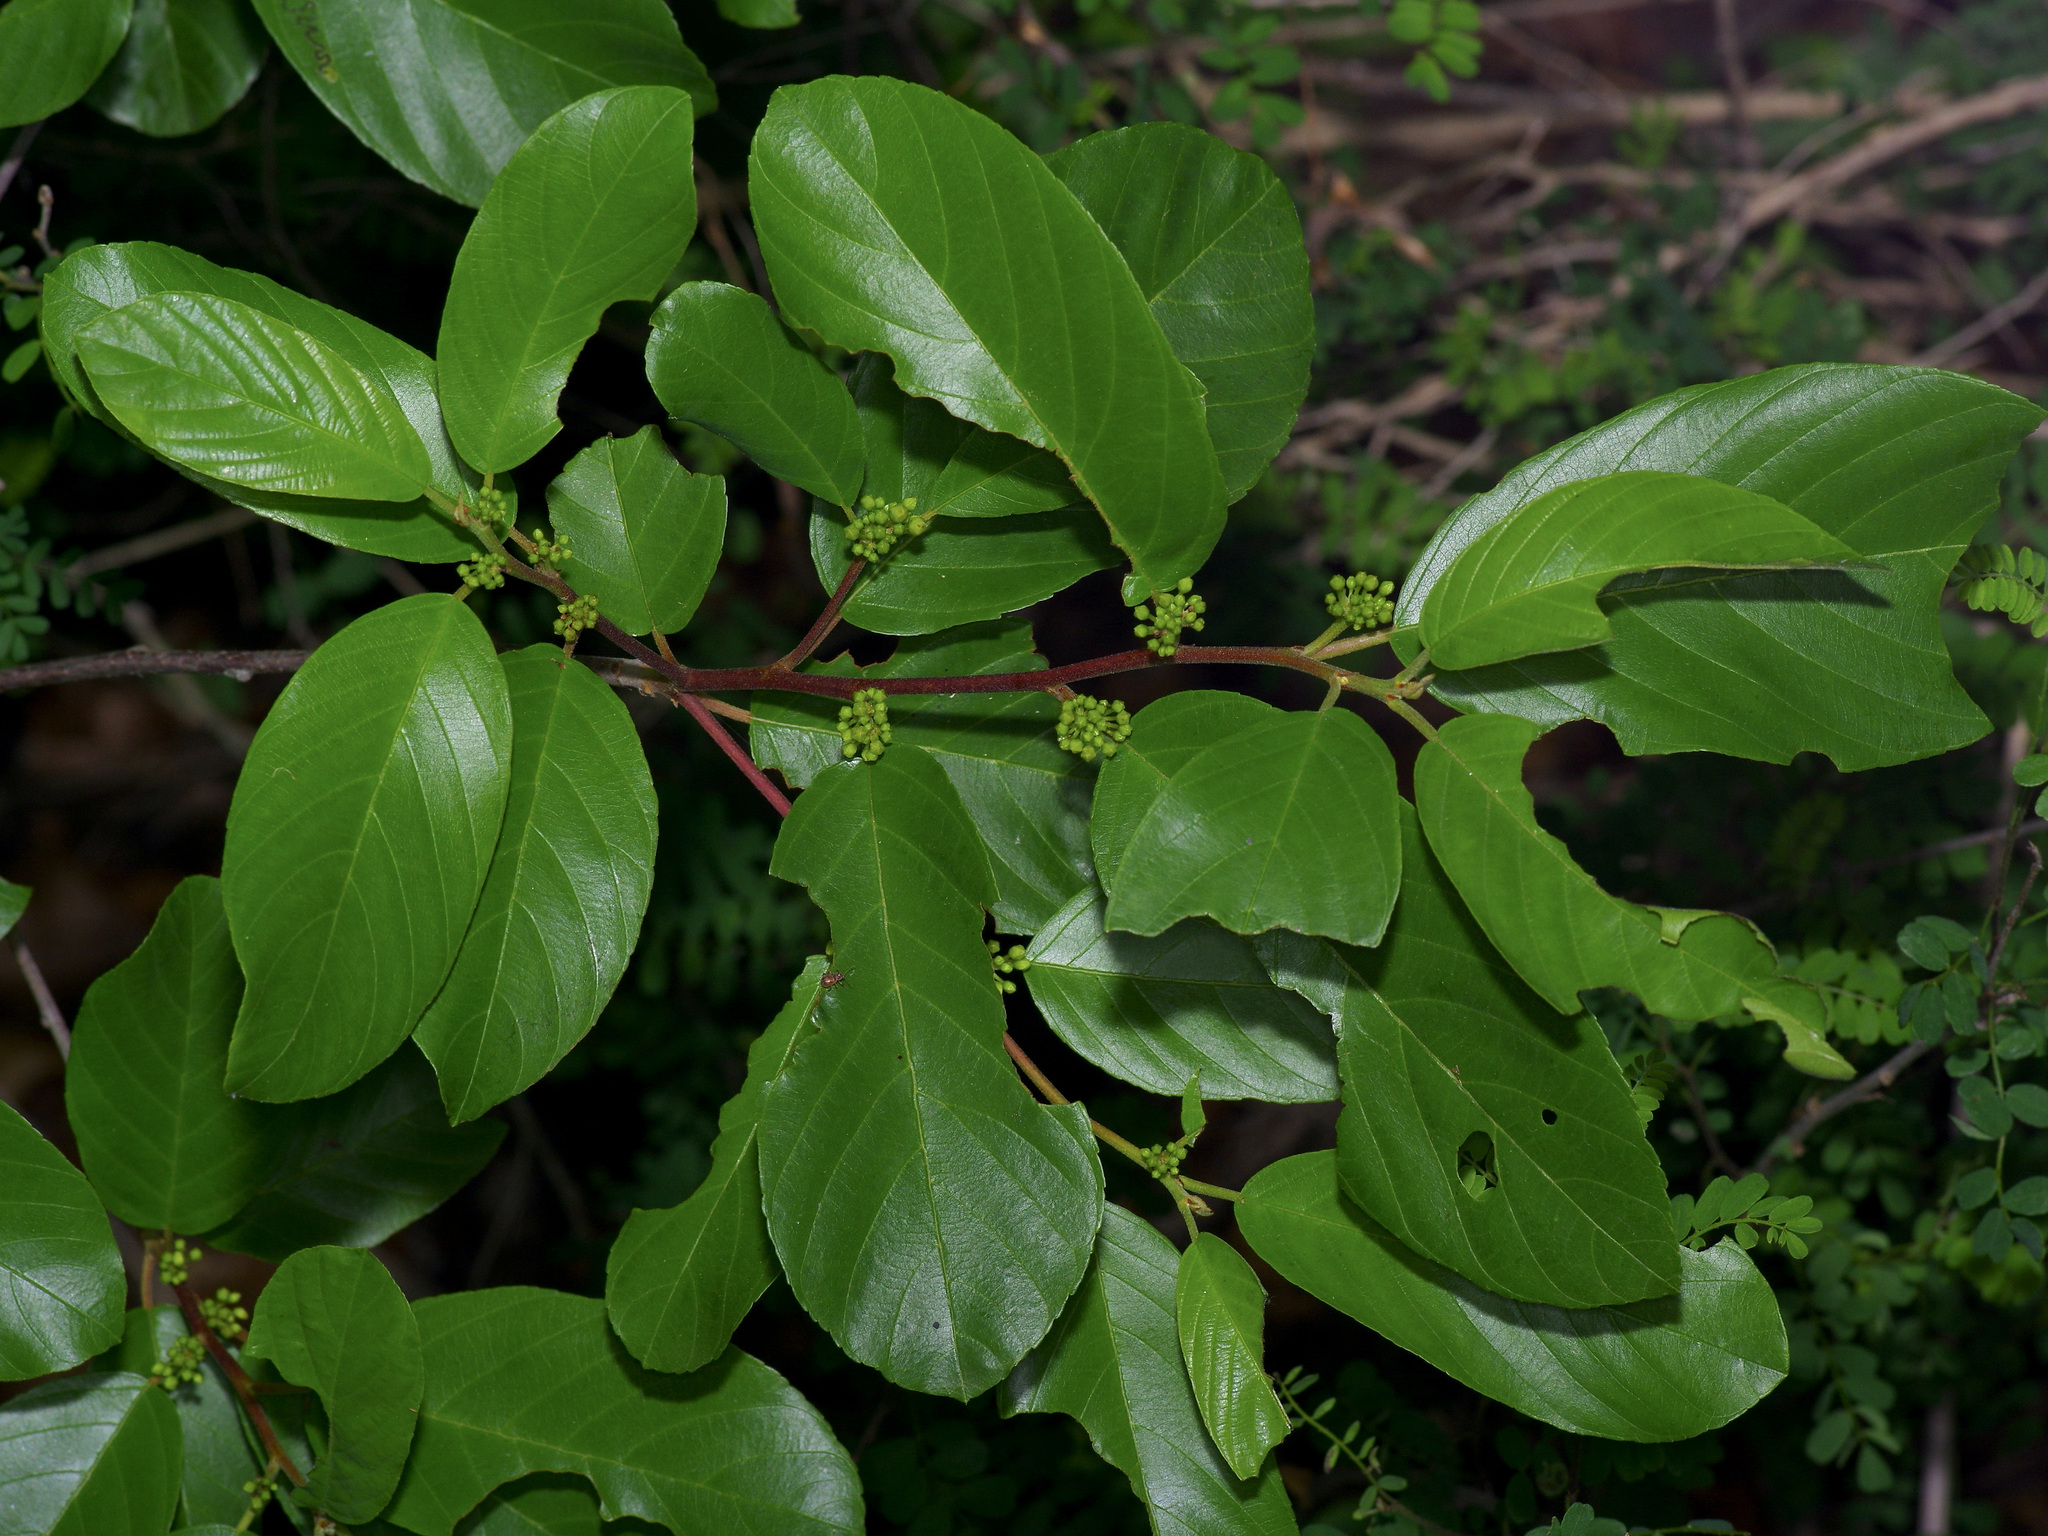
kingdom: Plantae
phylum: Tracheophyta
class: Magnoliopsida
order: Rosales
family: Rhamnaceae
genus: Frangula
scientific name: Frangula caroliniana
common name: Carolina buckthorn
